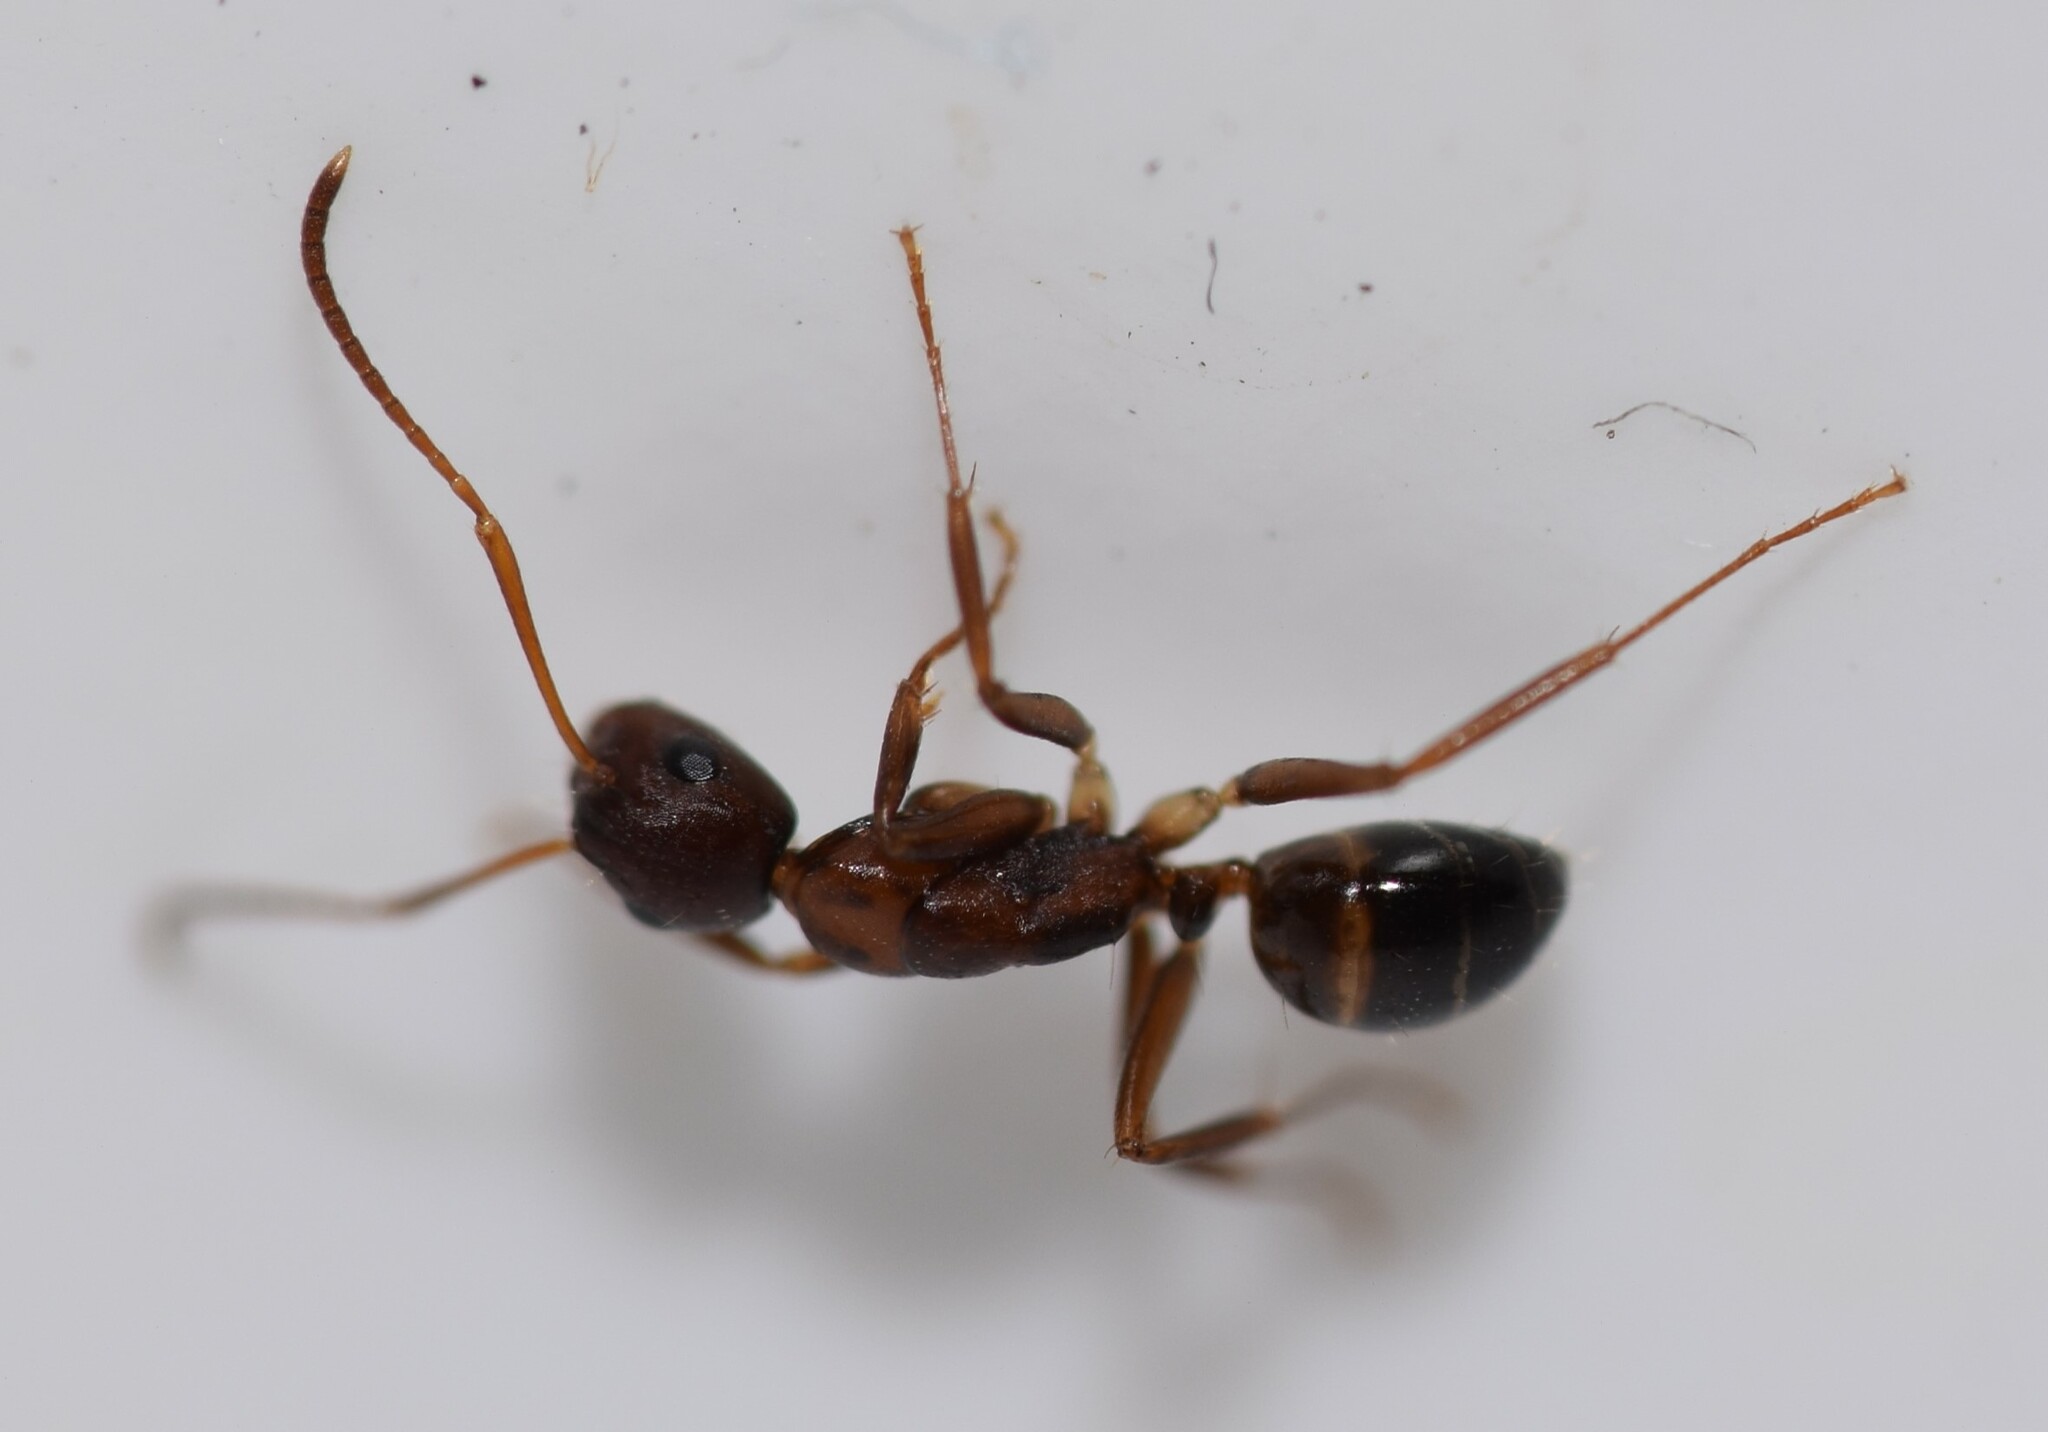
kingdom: Animalia
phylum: Arthropoda
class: Insecta
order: Hymenoptera
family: Formicidae
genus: Camponotus
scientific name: Camponotus subbarbatus
